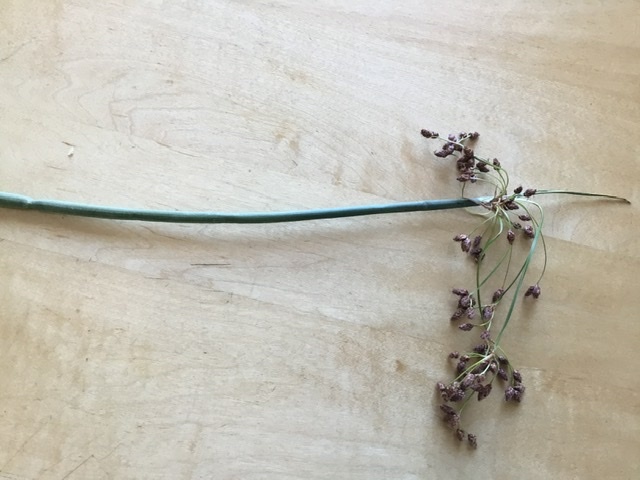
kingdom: Plantae
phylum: Tracheophyta
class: Liliopsida
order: Poales
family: Cyperaceae
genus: Schoenoplectus
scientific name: Schoenoplectus tabernaemontani
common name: Grey club-rush
